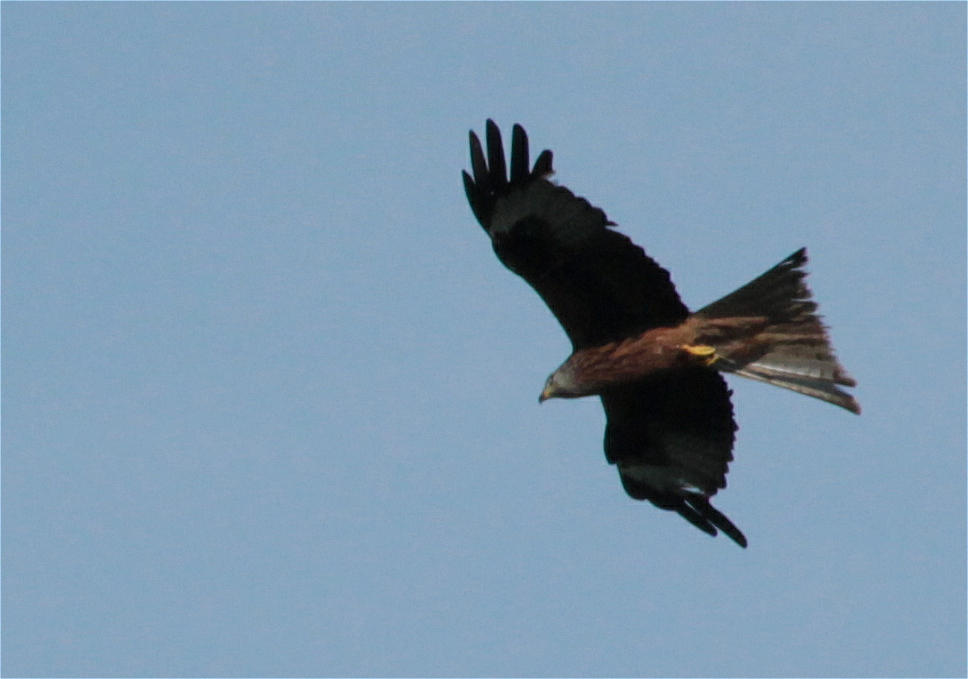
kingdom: Animalia
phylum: Chordata
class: Aves
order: Accipitriformes
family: Accipitridae
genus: Milvus
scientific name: Milvus milvus
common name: Red kite
